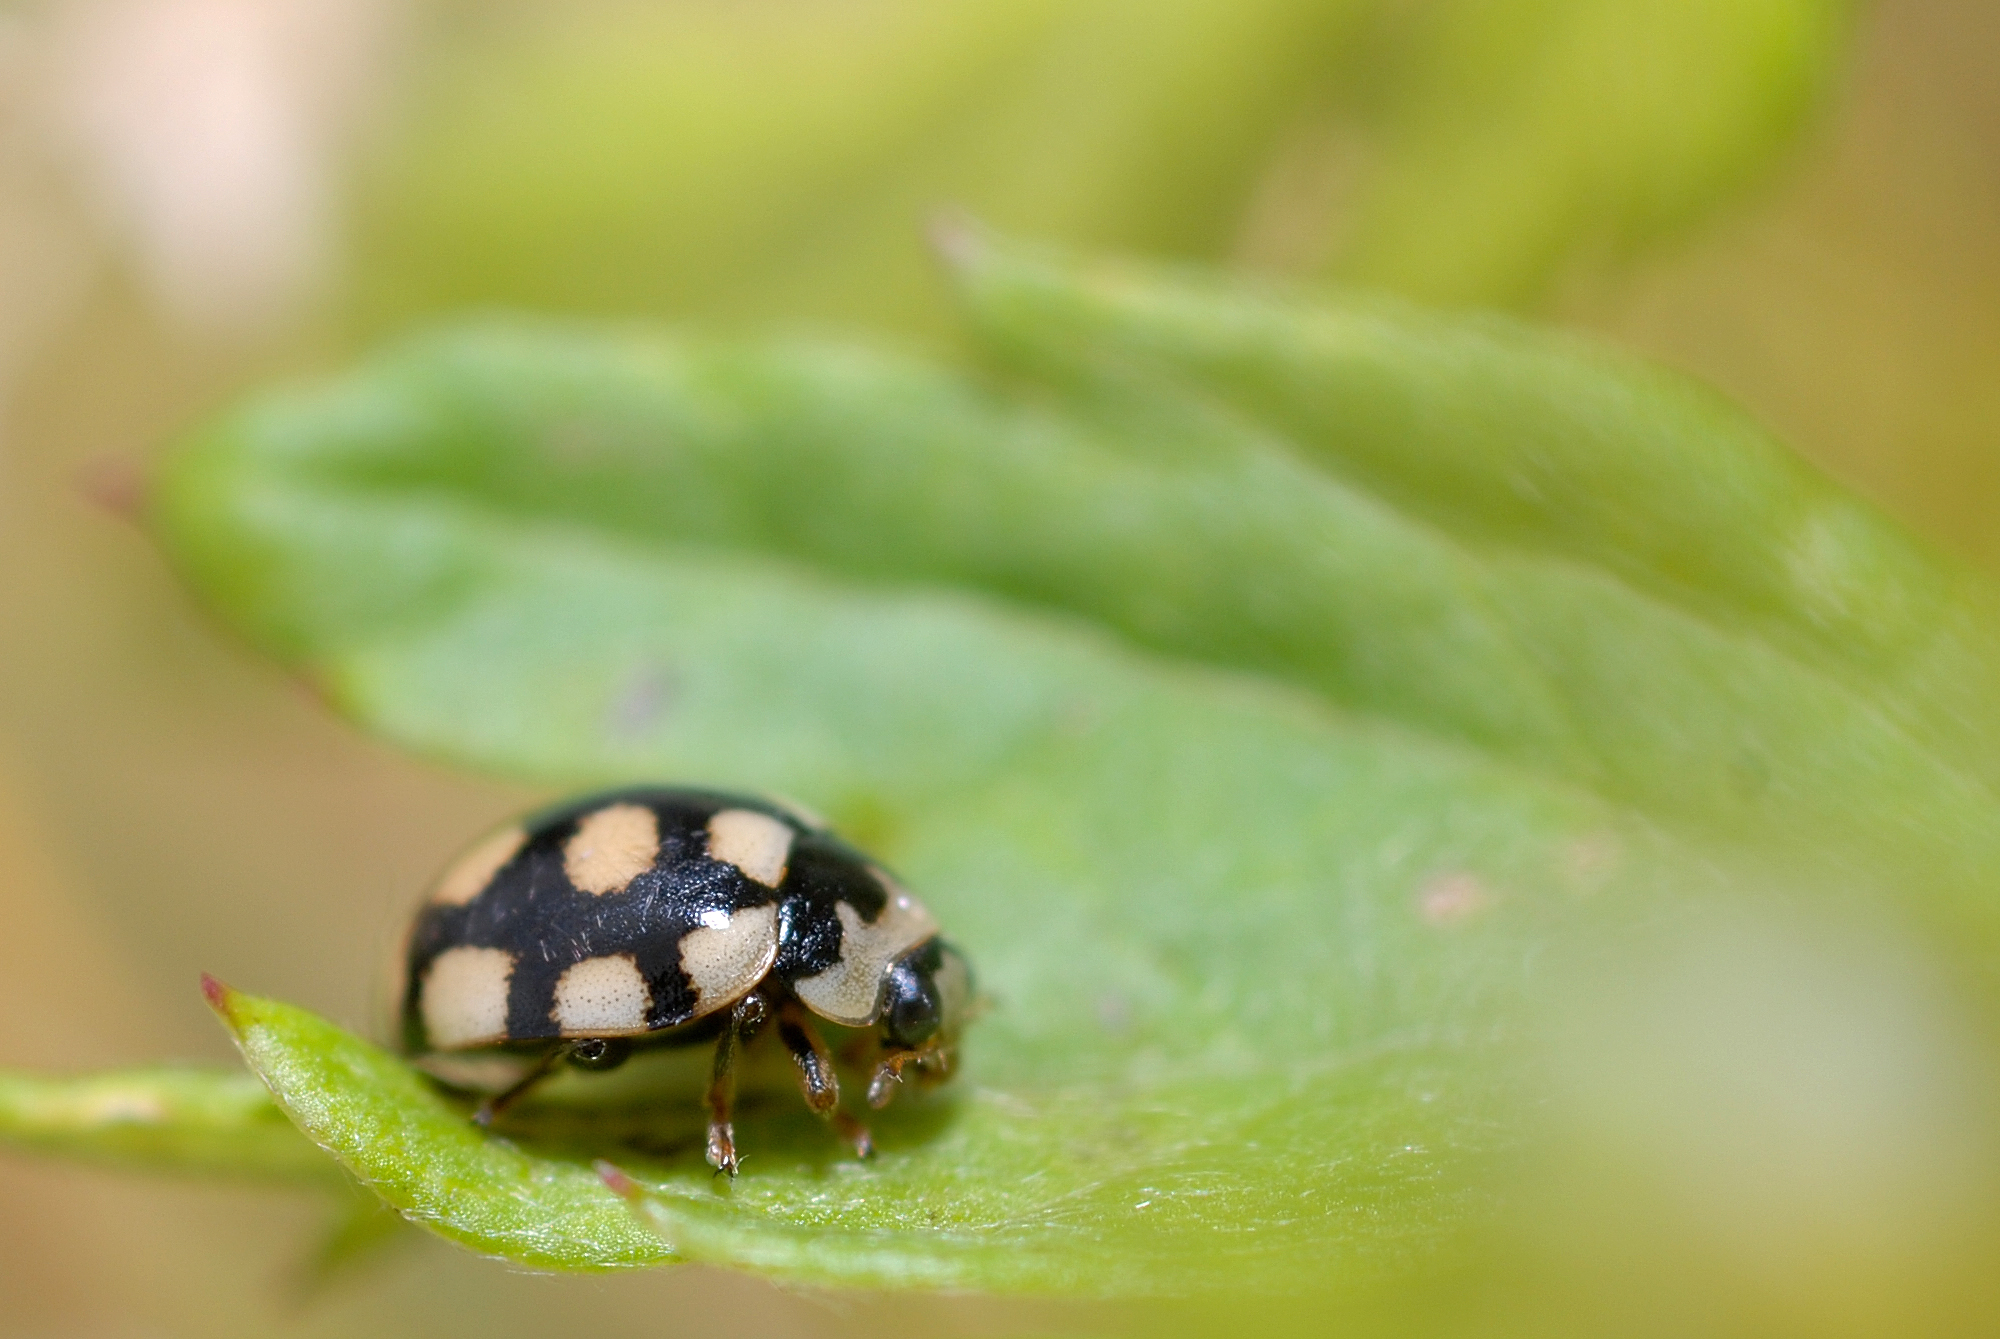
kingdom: Animalia
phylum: Arthropoda
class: Insecta
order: Coleoptera
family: Coccinellidae
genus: Coccinula
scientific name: Coccinula quatuordecimpustulata
